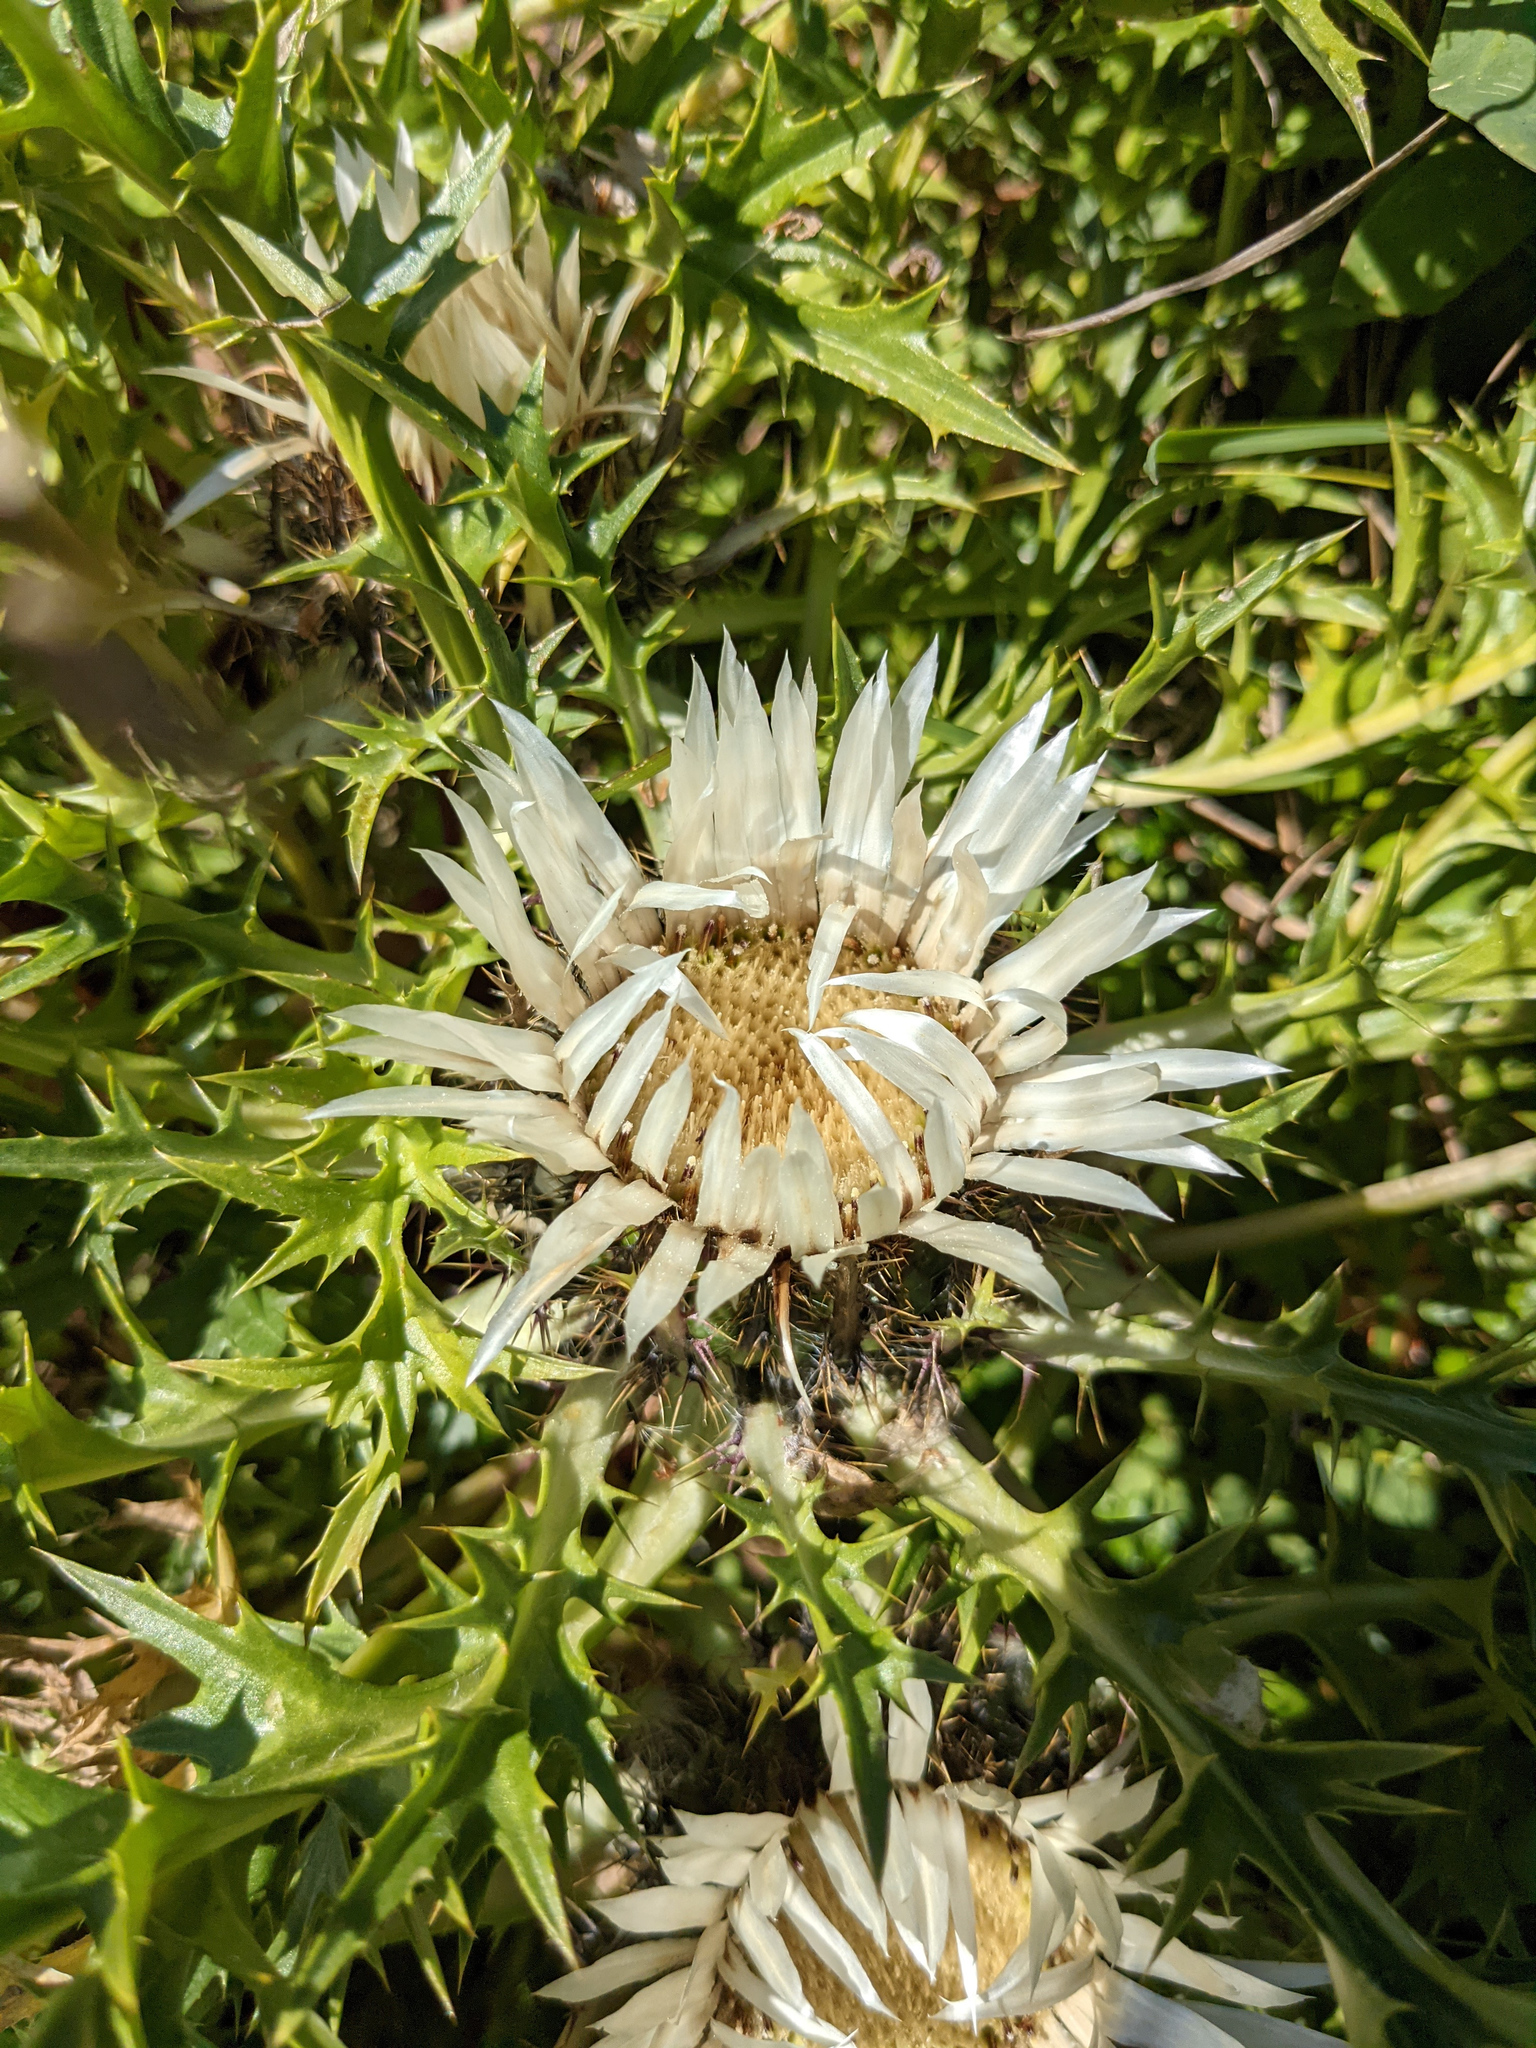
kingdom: Plantae
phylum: Tracheophyta
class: Magnoliopsida
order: Asterales
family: Asteraceae
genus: Carlina
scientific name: Carlina acaulis
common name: Stemless carline thistle
